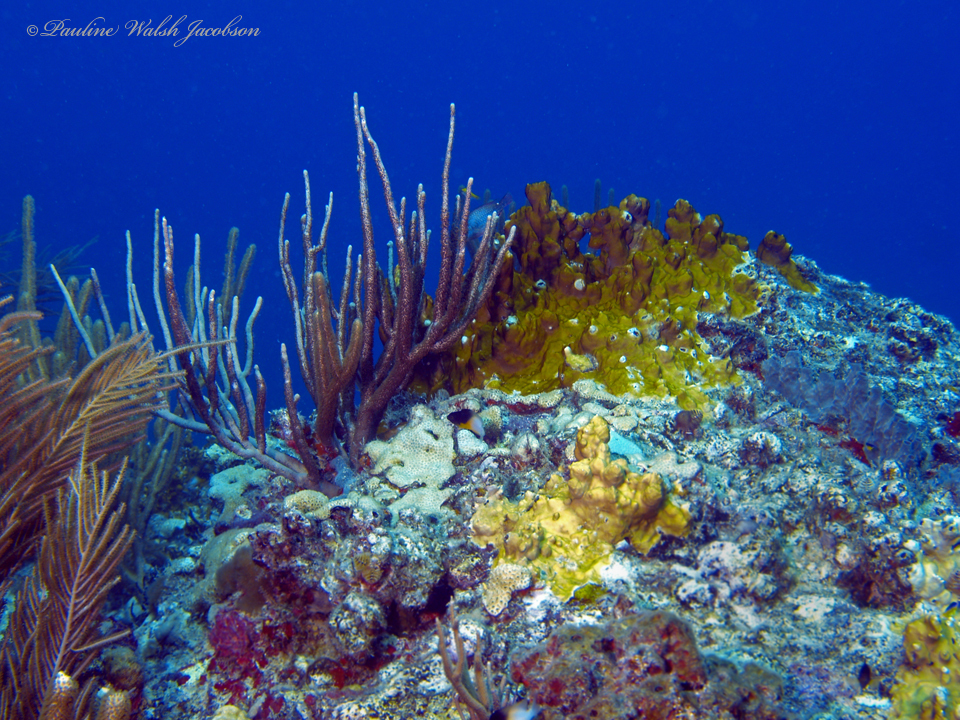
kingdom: Animalia
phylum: Cnidaria
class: Hydrozoa
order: Anthoathecata
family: Milleporidae
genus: Millepora
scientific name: Millepora complanata
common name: Bladed fire coral
